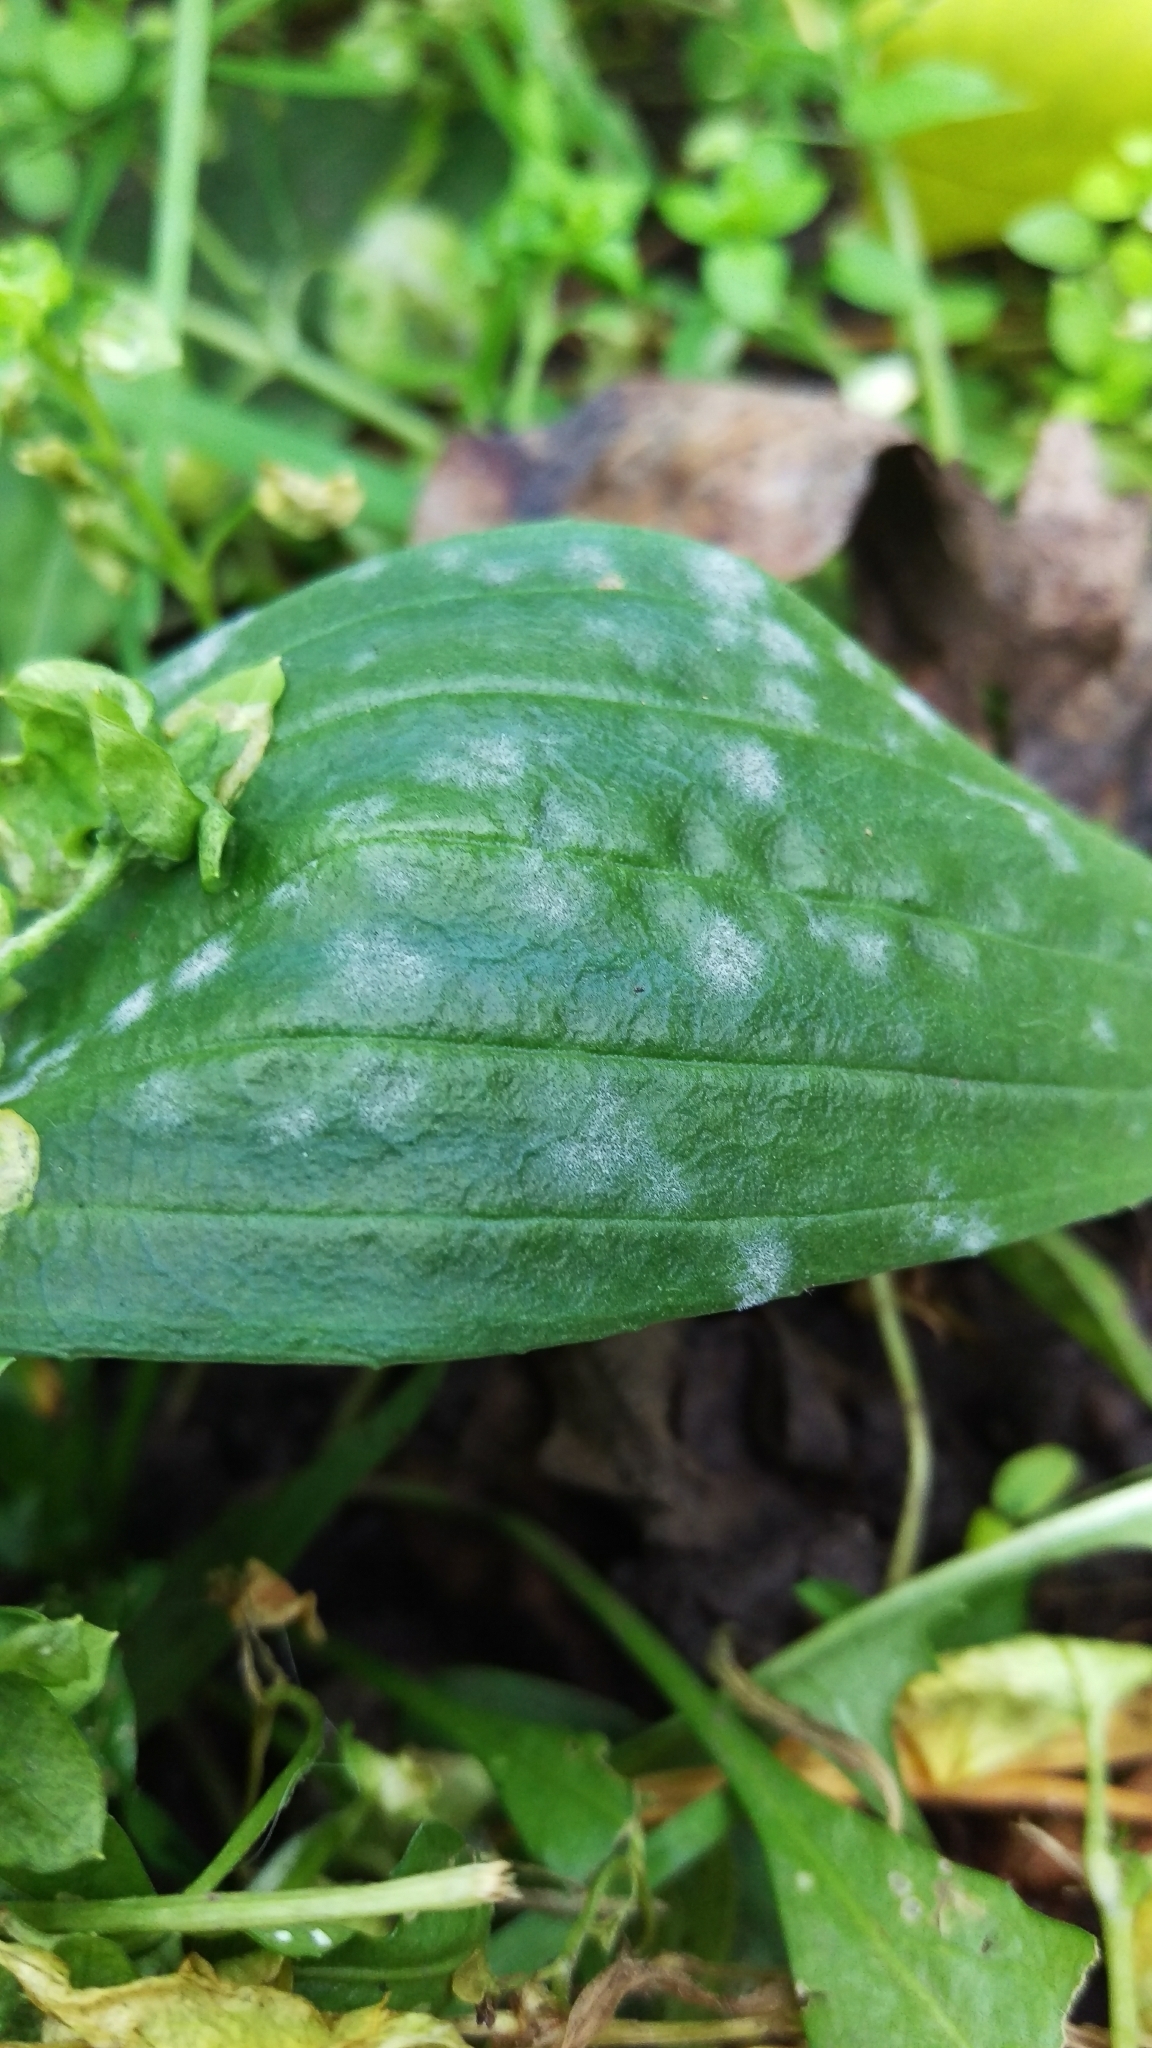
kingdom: Fungi
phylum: Ascomycota
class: Leotiomycetes
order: Helotiales
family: Erysiphaceae
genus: Golovinomyces
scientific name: Golovinomyces sordidus
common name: Plantain mildew
